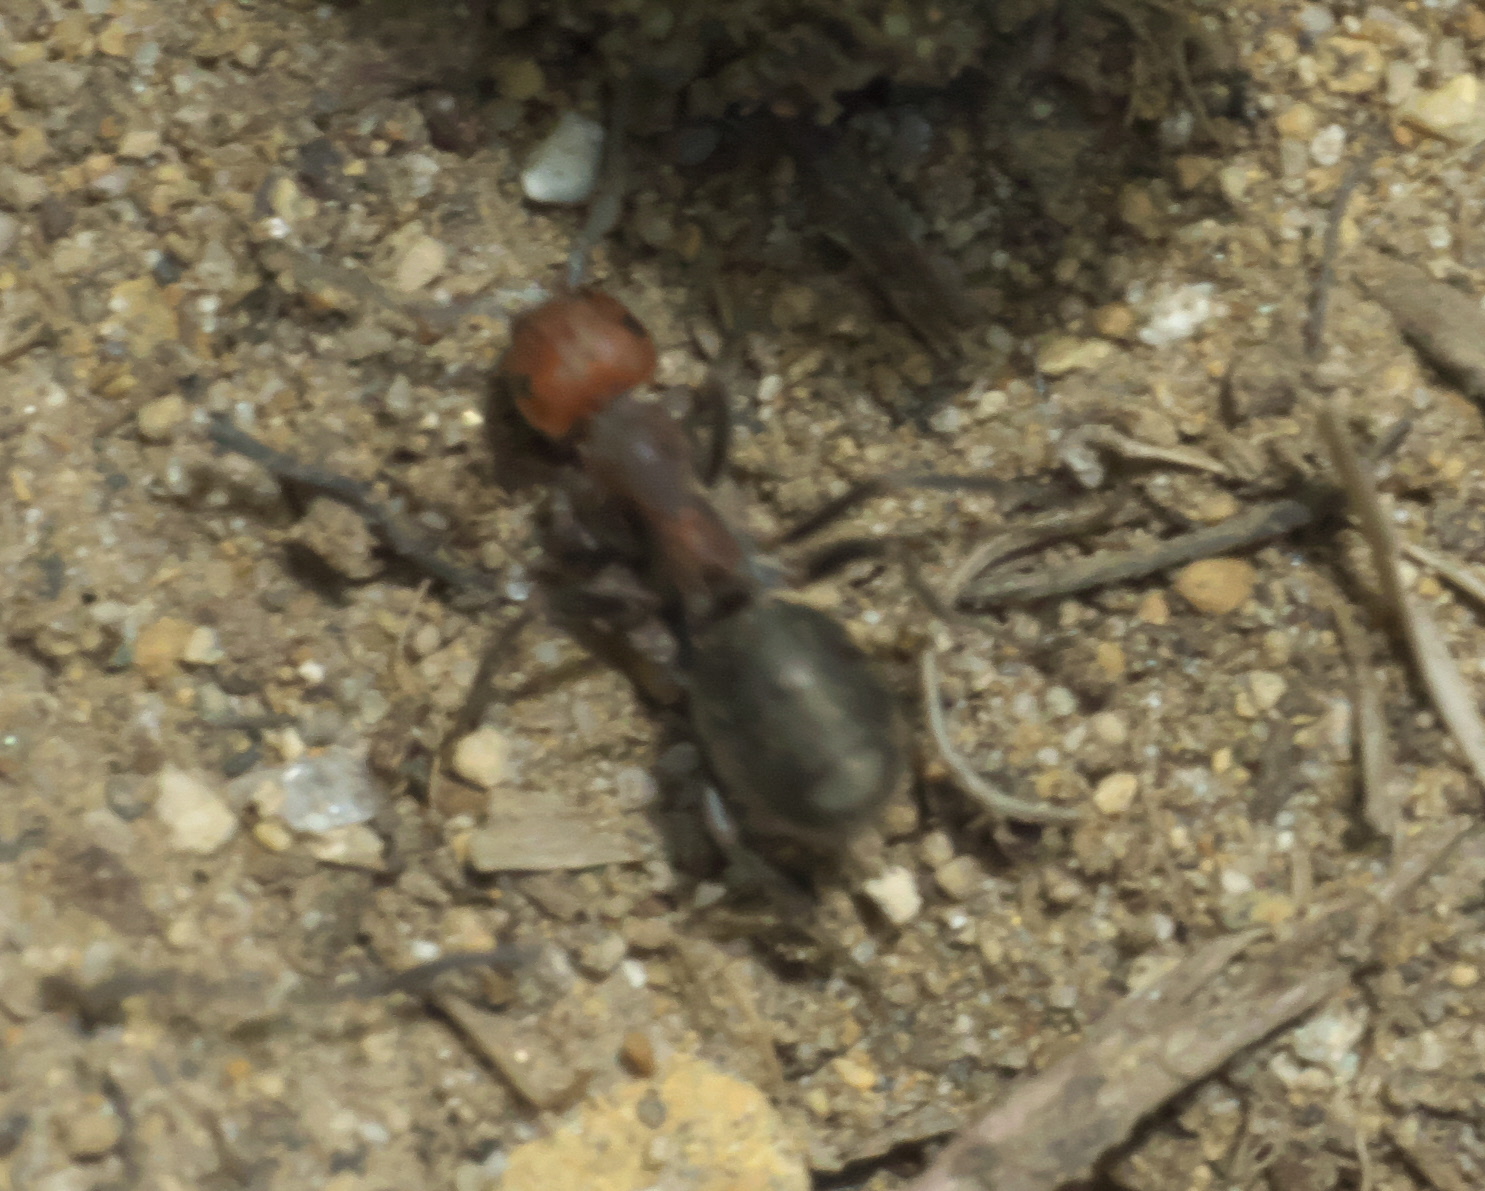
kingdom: Animalia
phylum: Arthropoda
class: Insecta
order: Hymenoptera
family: Formicidae
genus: Formica
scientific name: Formica obscuripes
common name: Western thatching ant
